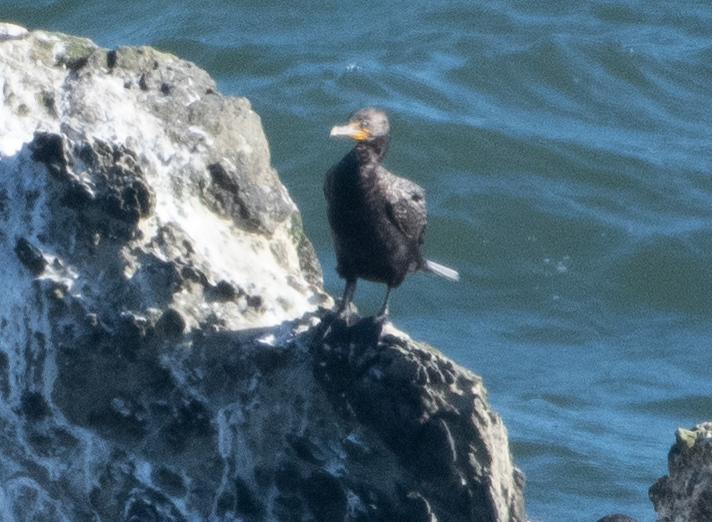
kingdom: Animalia
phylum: Chordata
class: Aves
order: Suliformes
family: Phalacrocoracidae
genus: Phalacrocorax
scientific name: Phalacrocorax auritus
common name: Double-crested cormorant
